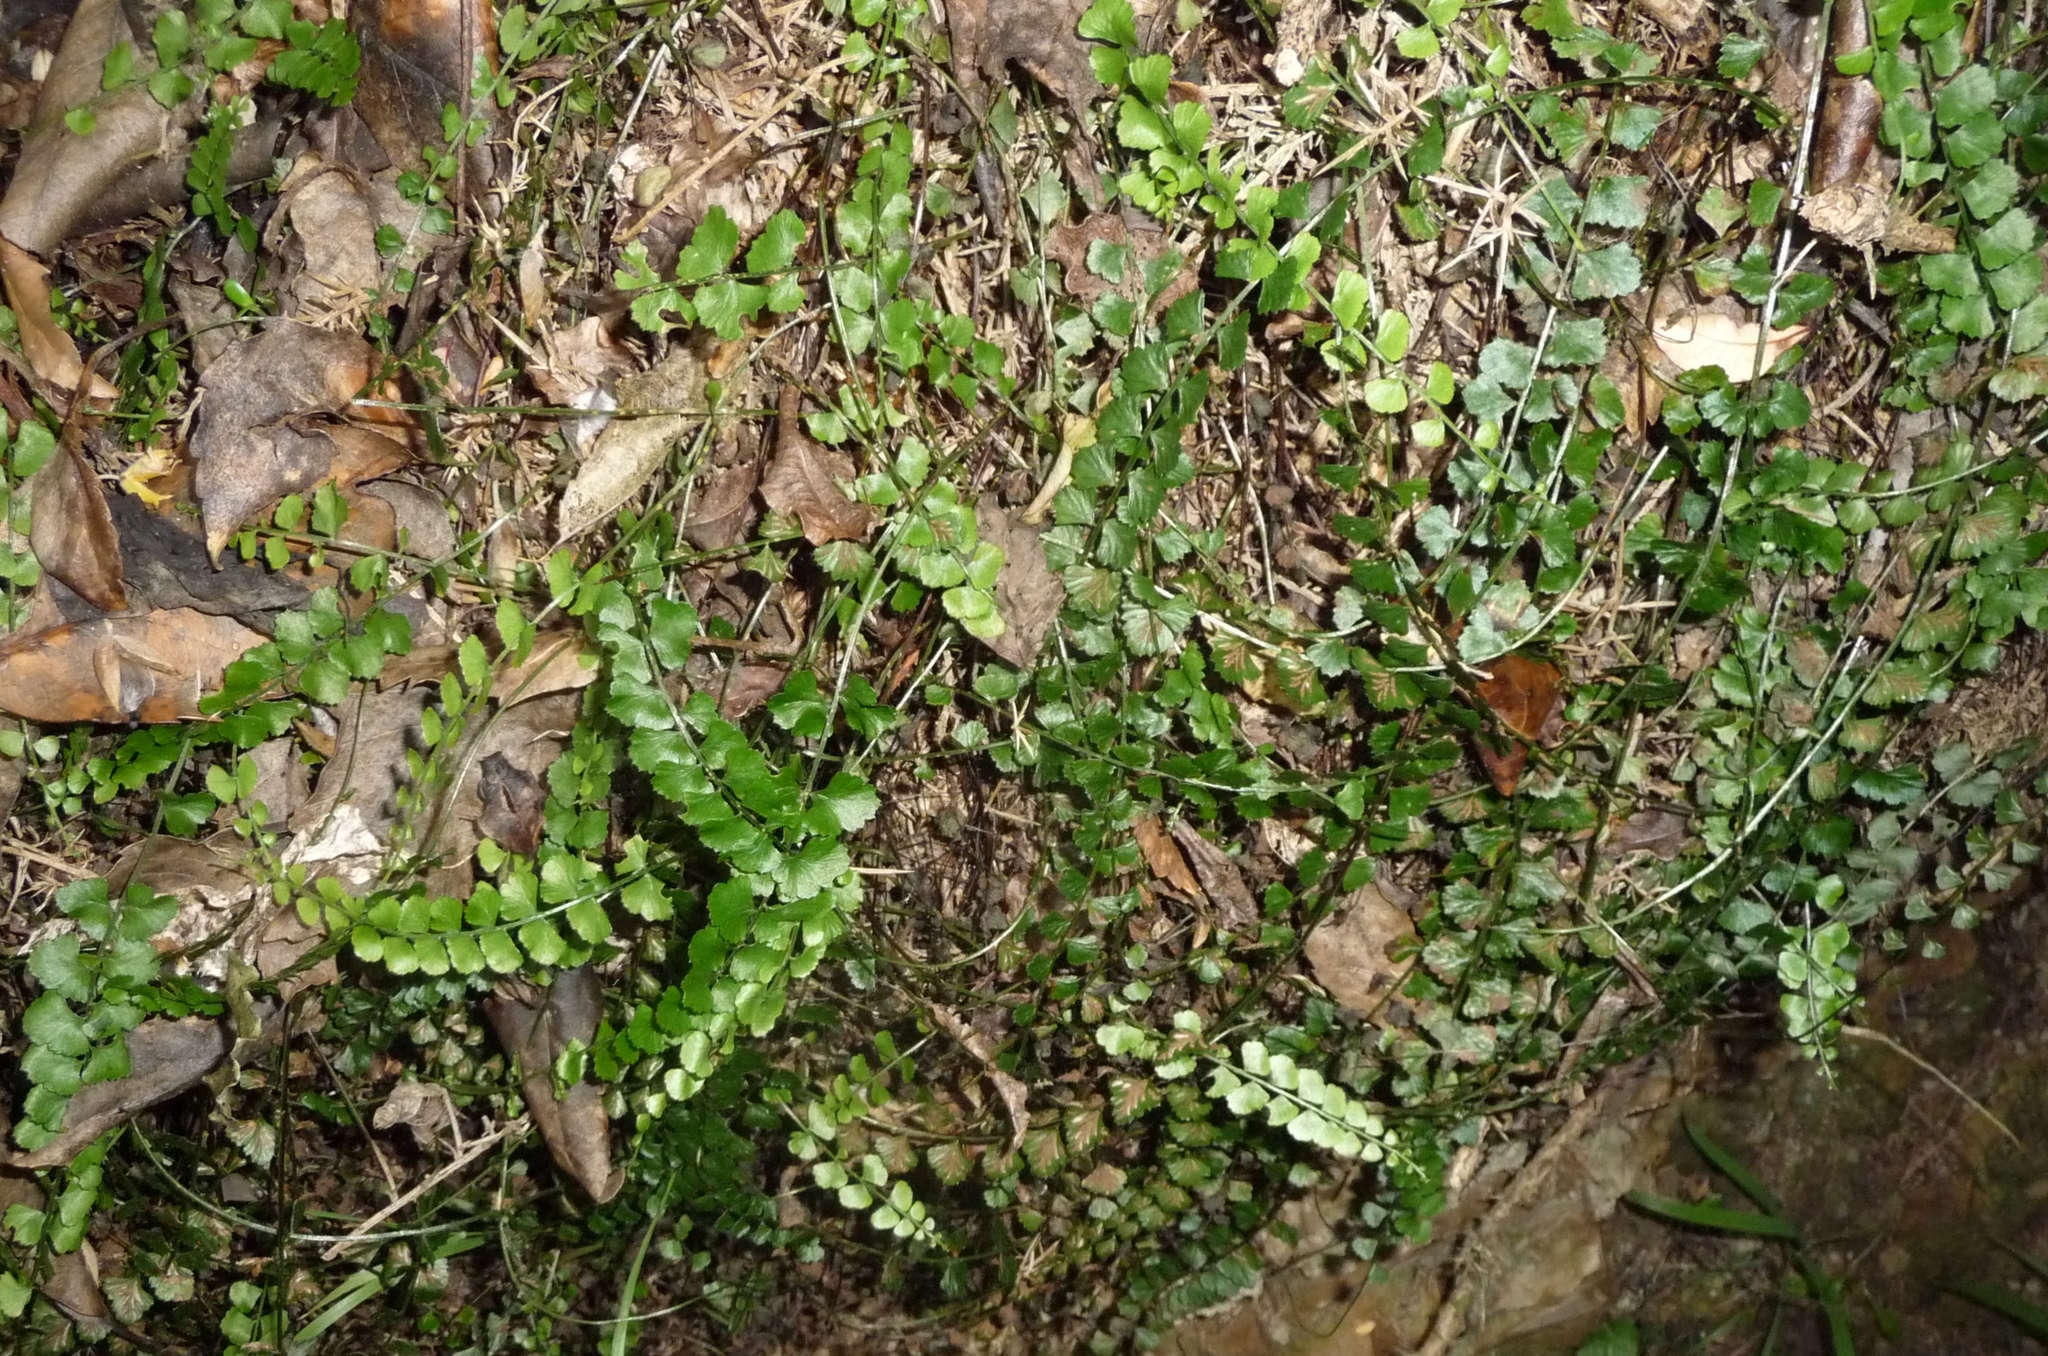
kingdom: Plantae
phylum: Tracheophyta
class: Polypodiopsida
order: Polypodiales
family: Aspleniaceae
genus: Asplenium
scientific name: Asplenium flabellifolium
